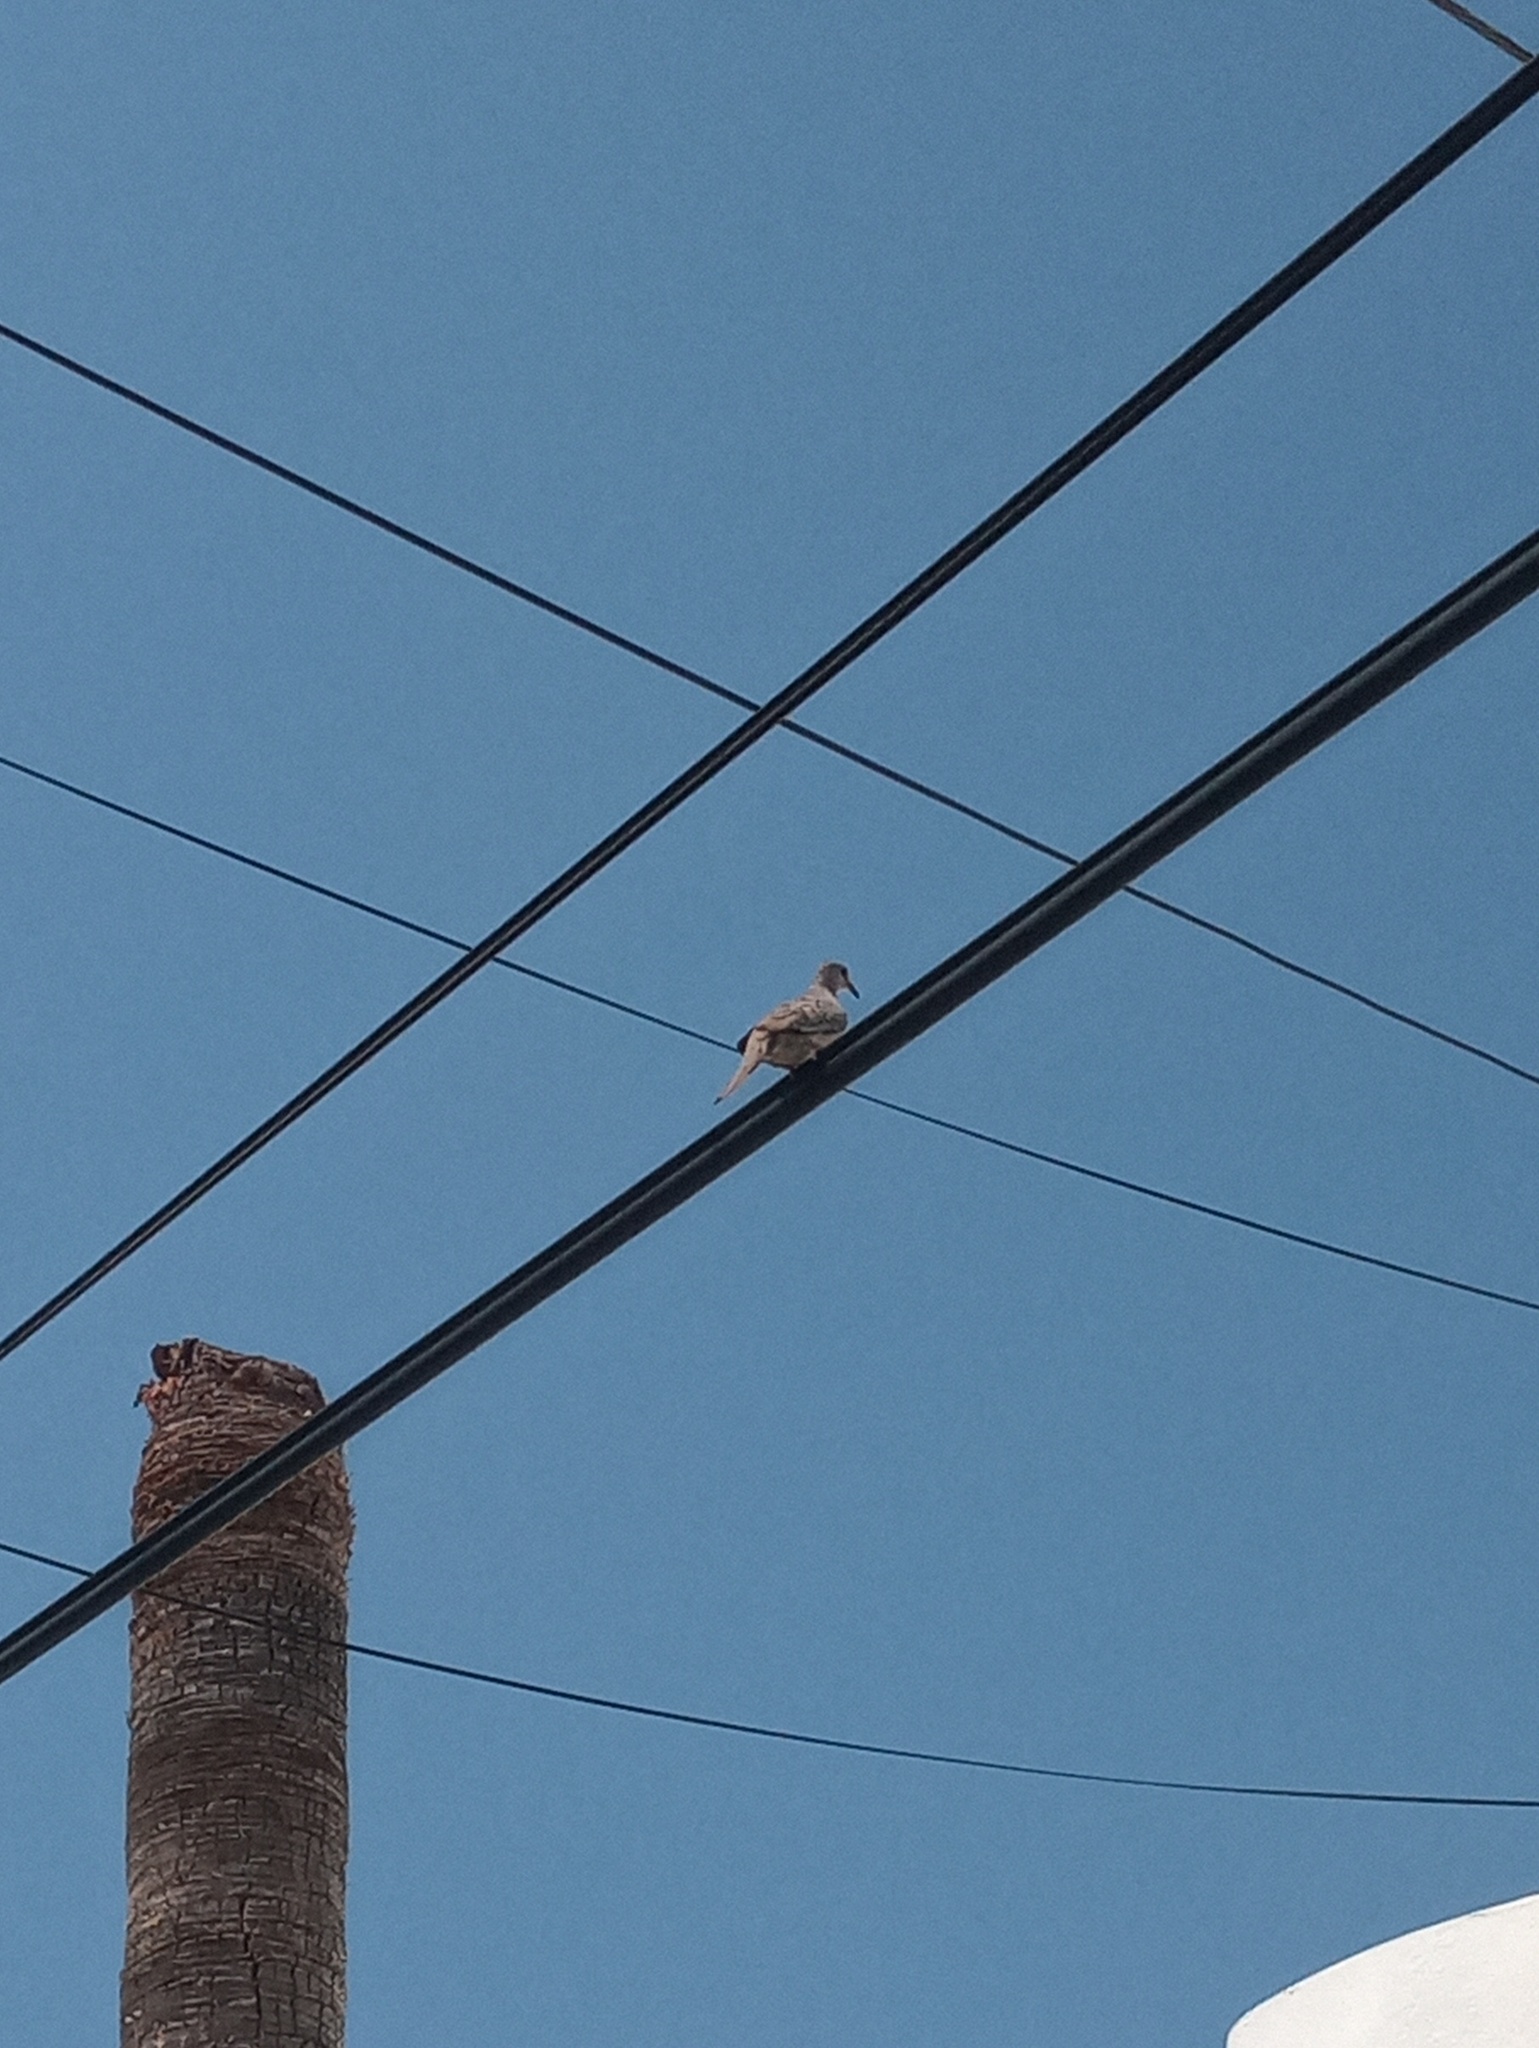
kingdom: Animalia
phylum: Chordata
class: Aves
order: Columbiformes
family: Columbidae
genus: Columbina
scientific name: Columbina inca
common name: Inca dove
